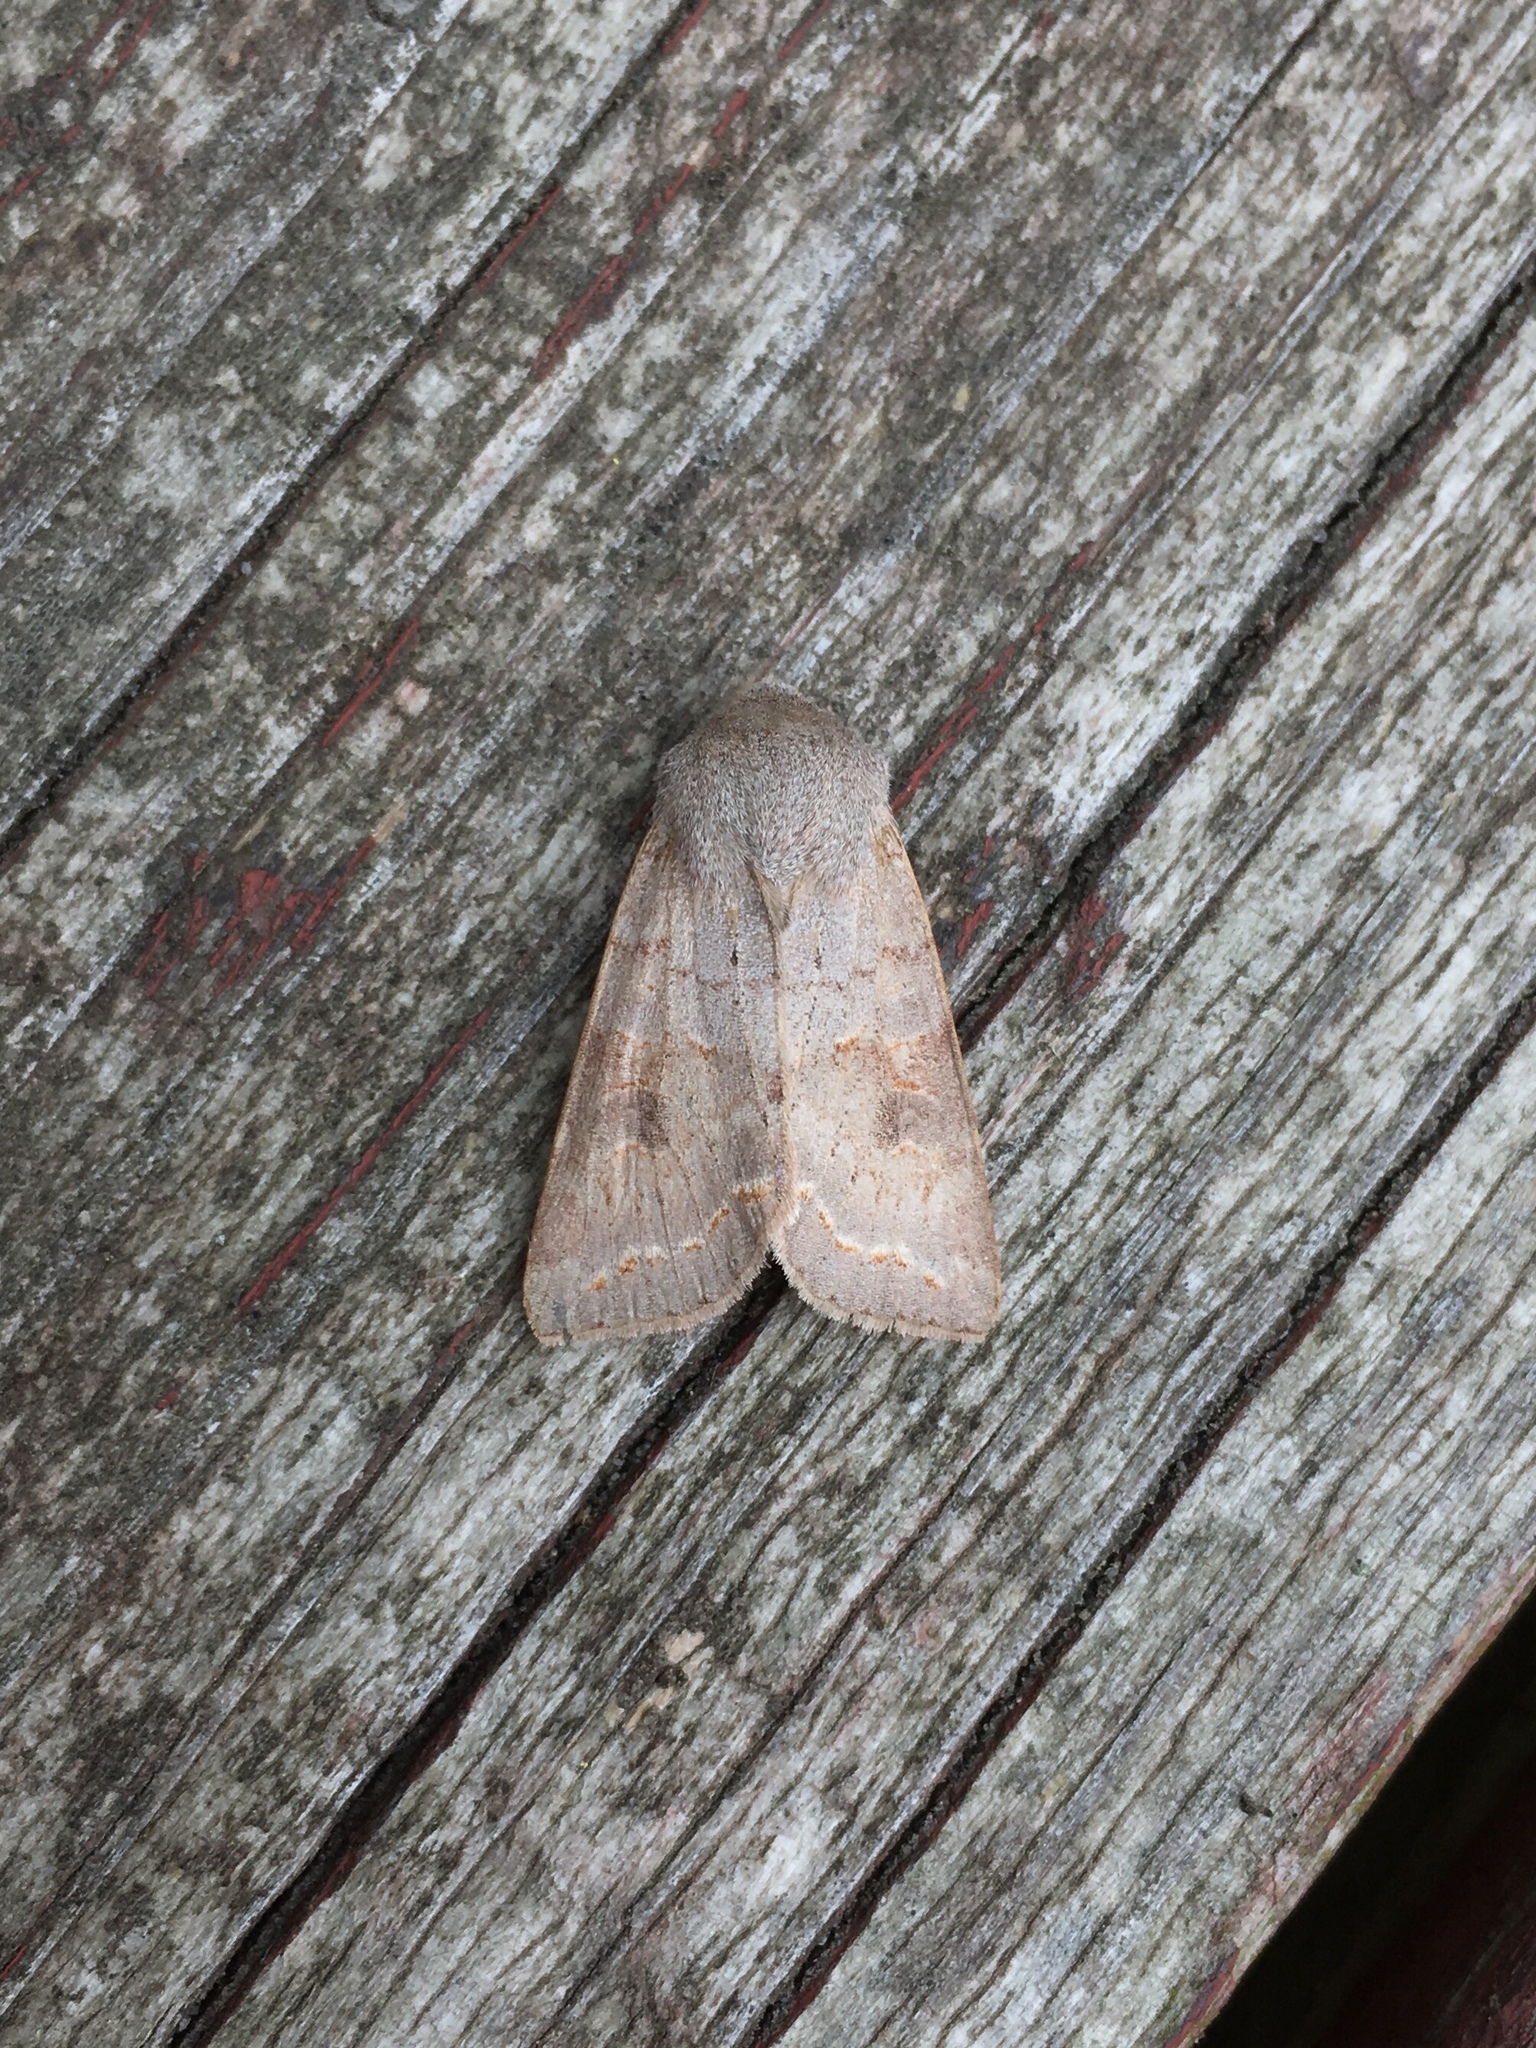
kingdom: Animalia
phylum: Arthropoda
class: Insecta
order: Lepidoptera
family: Noctuidae
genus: Orthosia
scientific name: Orthosia revicta
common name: Rusty whitesided caterpillar
